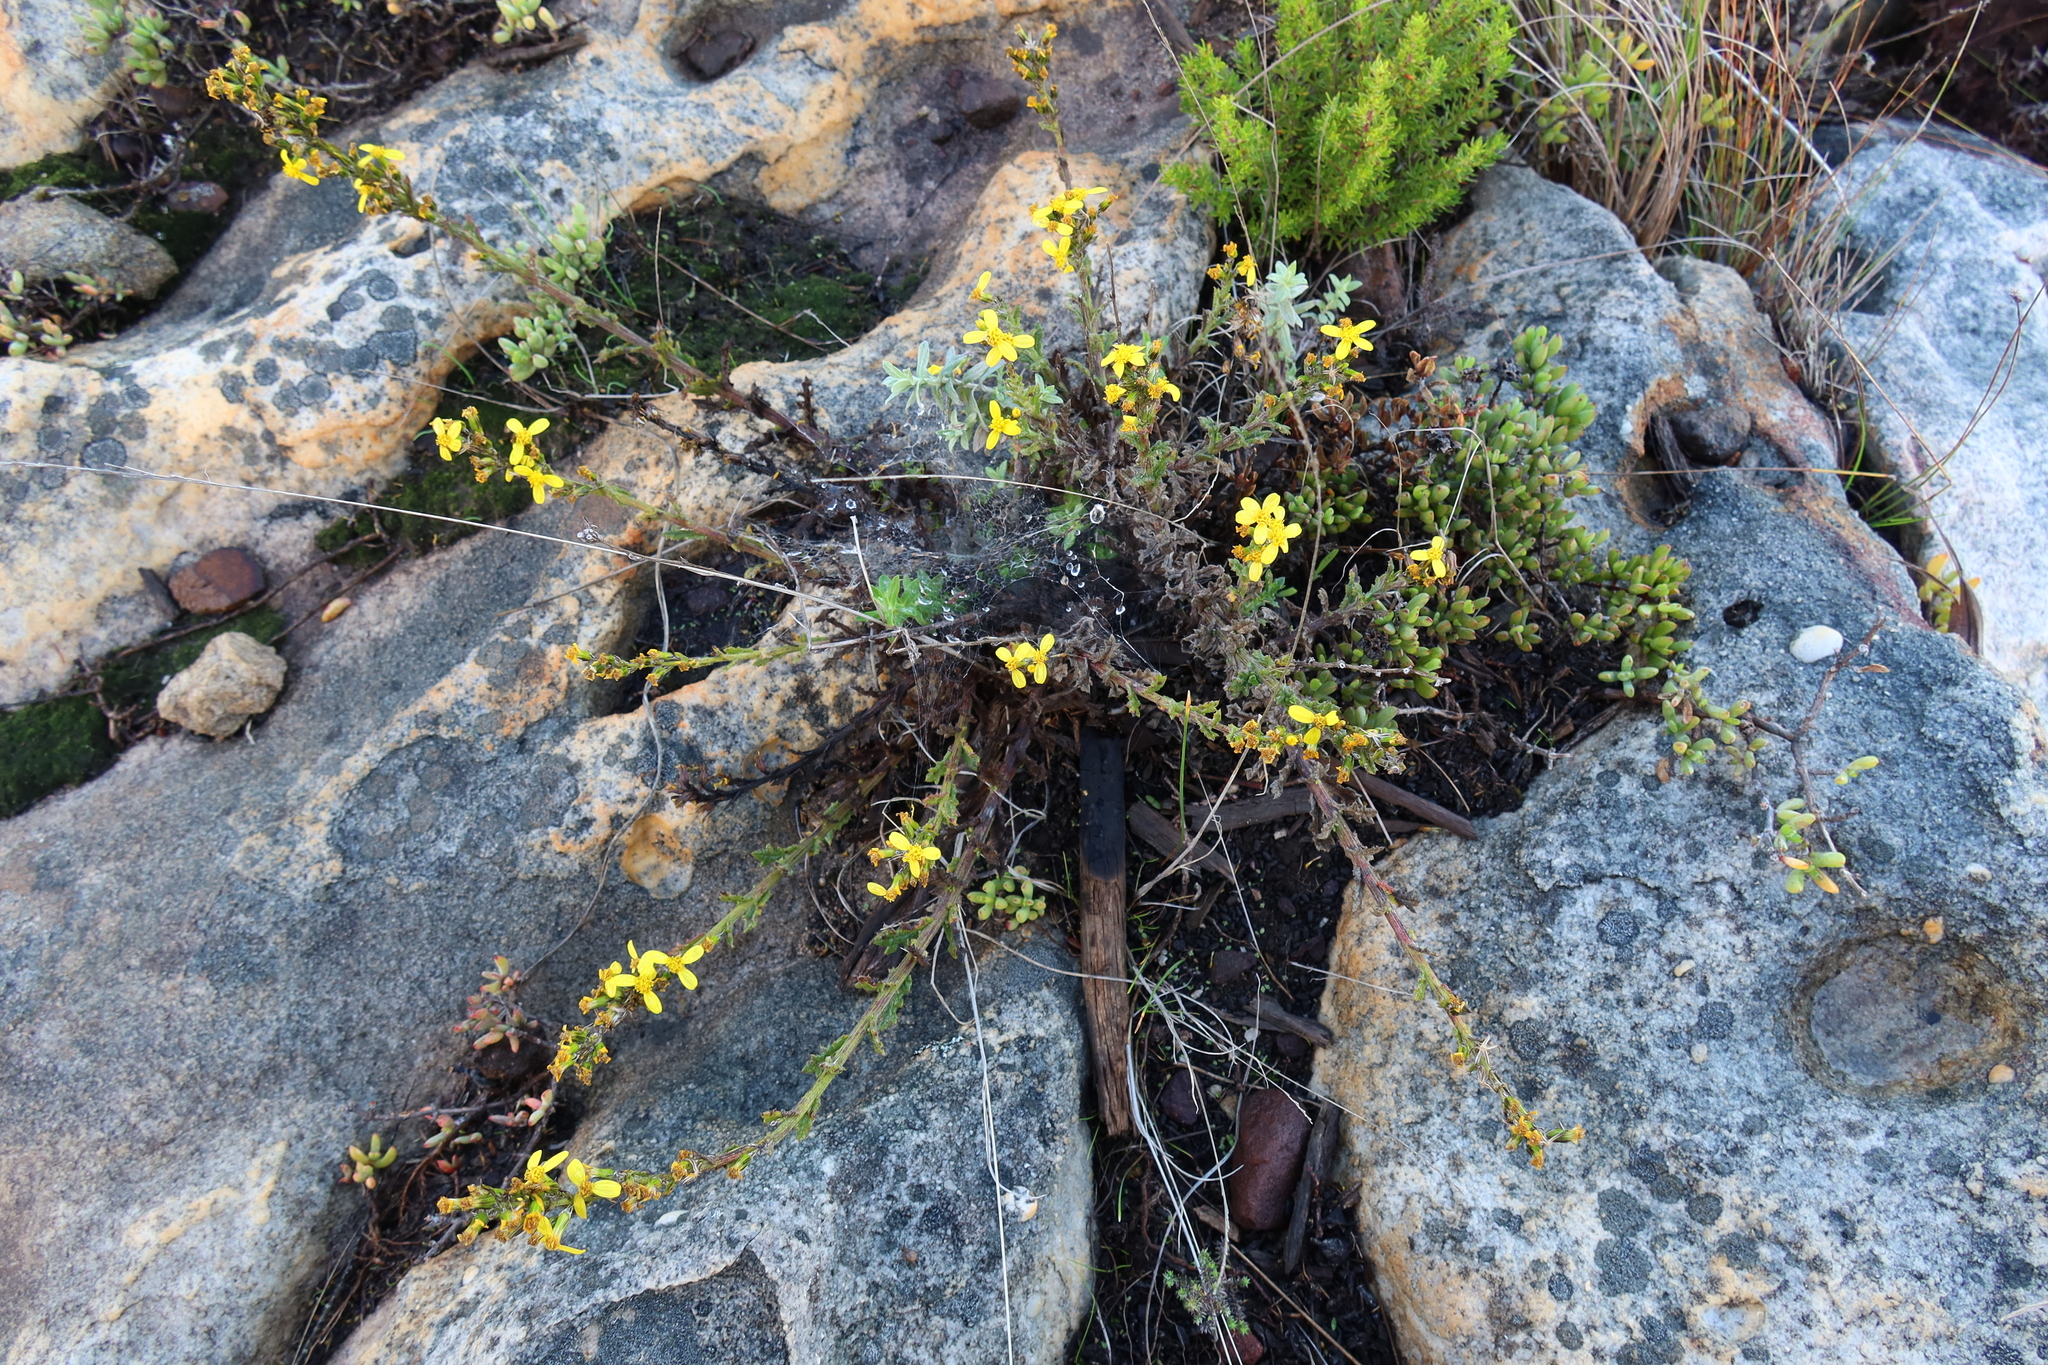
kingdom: Plantae
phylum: Tracheophyta
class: Magnoliopsida
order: Asterales
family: Asteraceae
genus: Senecio
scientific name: Senecio pubigerus
